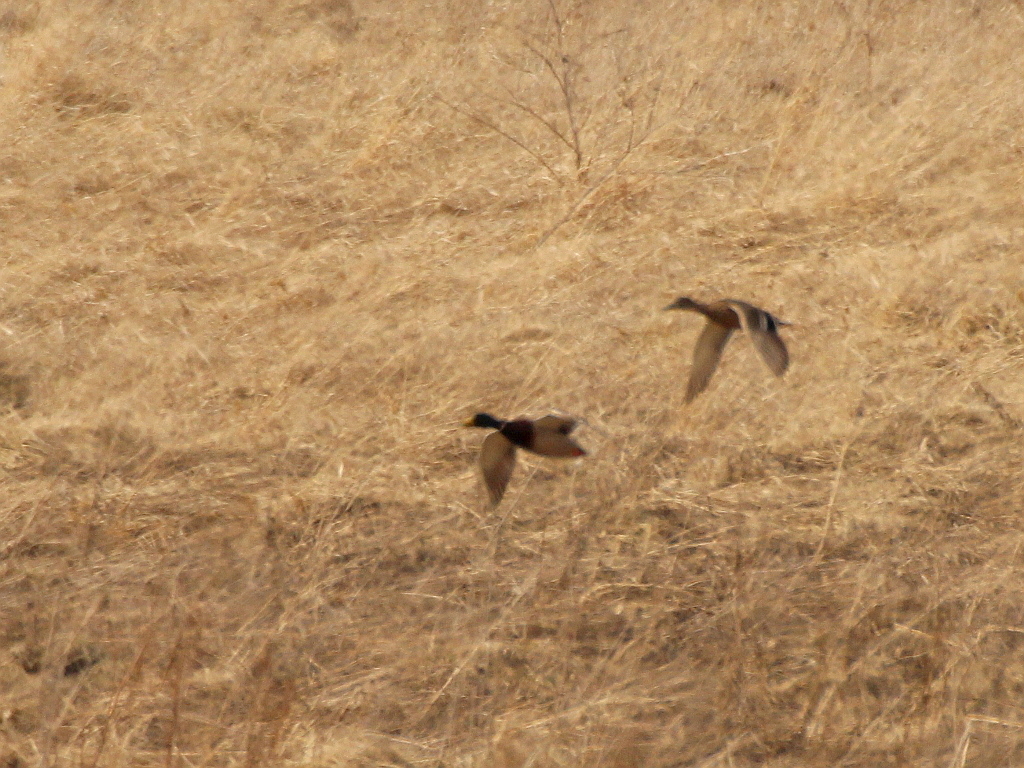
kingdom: Animalia
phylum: Chordata
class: Aves
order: Anseriformes
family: Anatidae
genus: Anas
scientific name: Anas platyrhynchos
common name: Mallard
